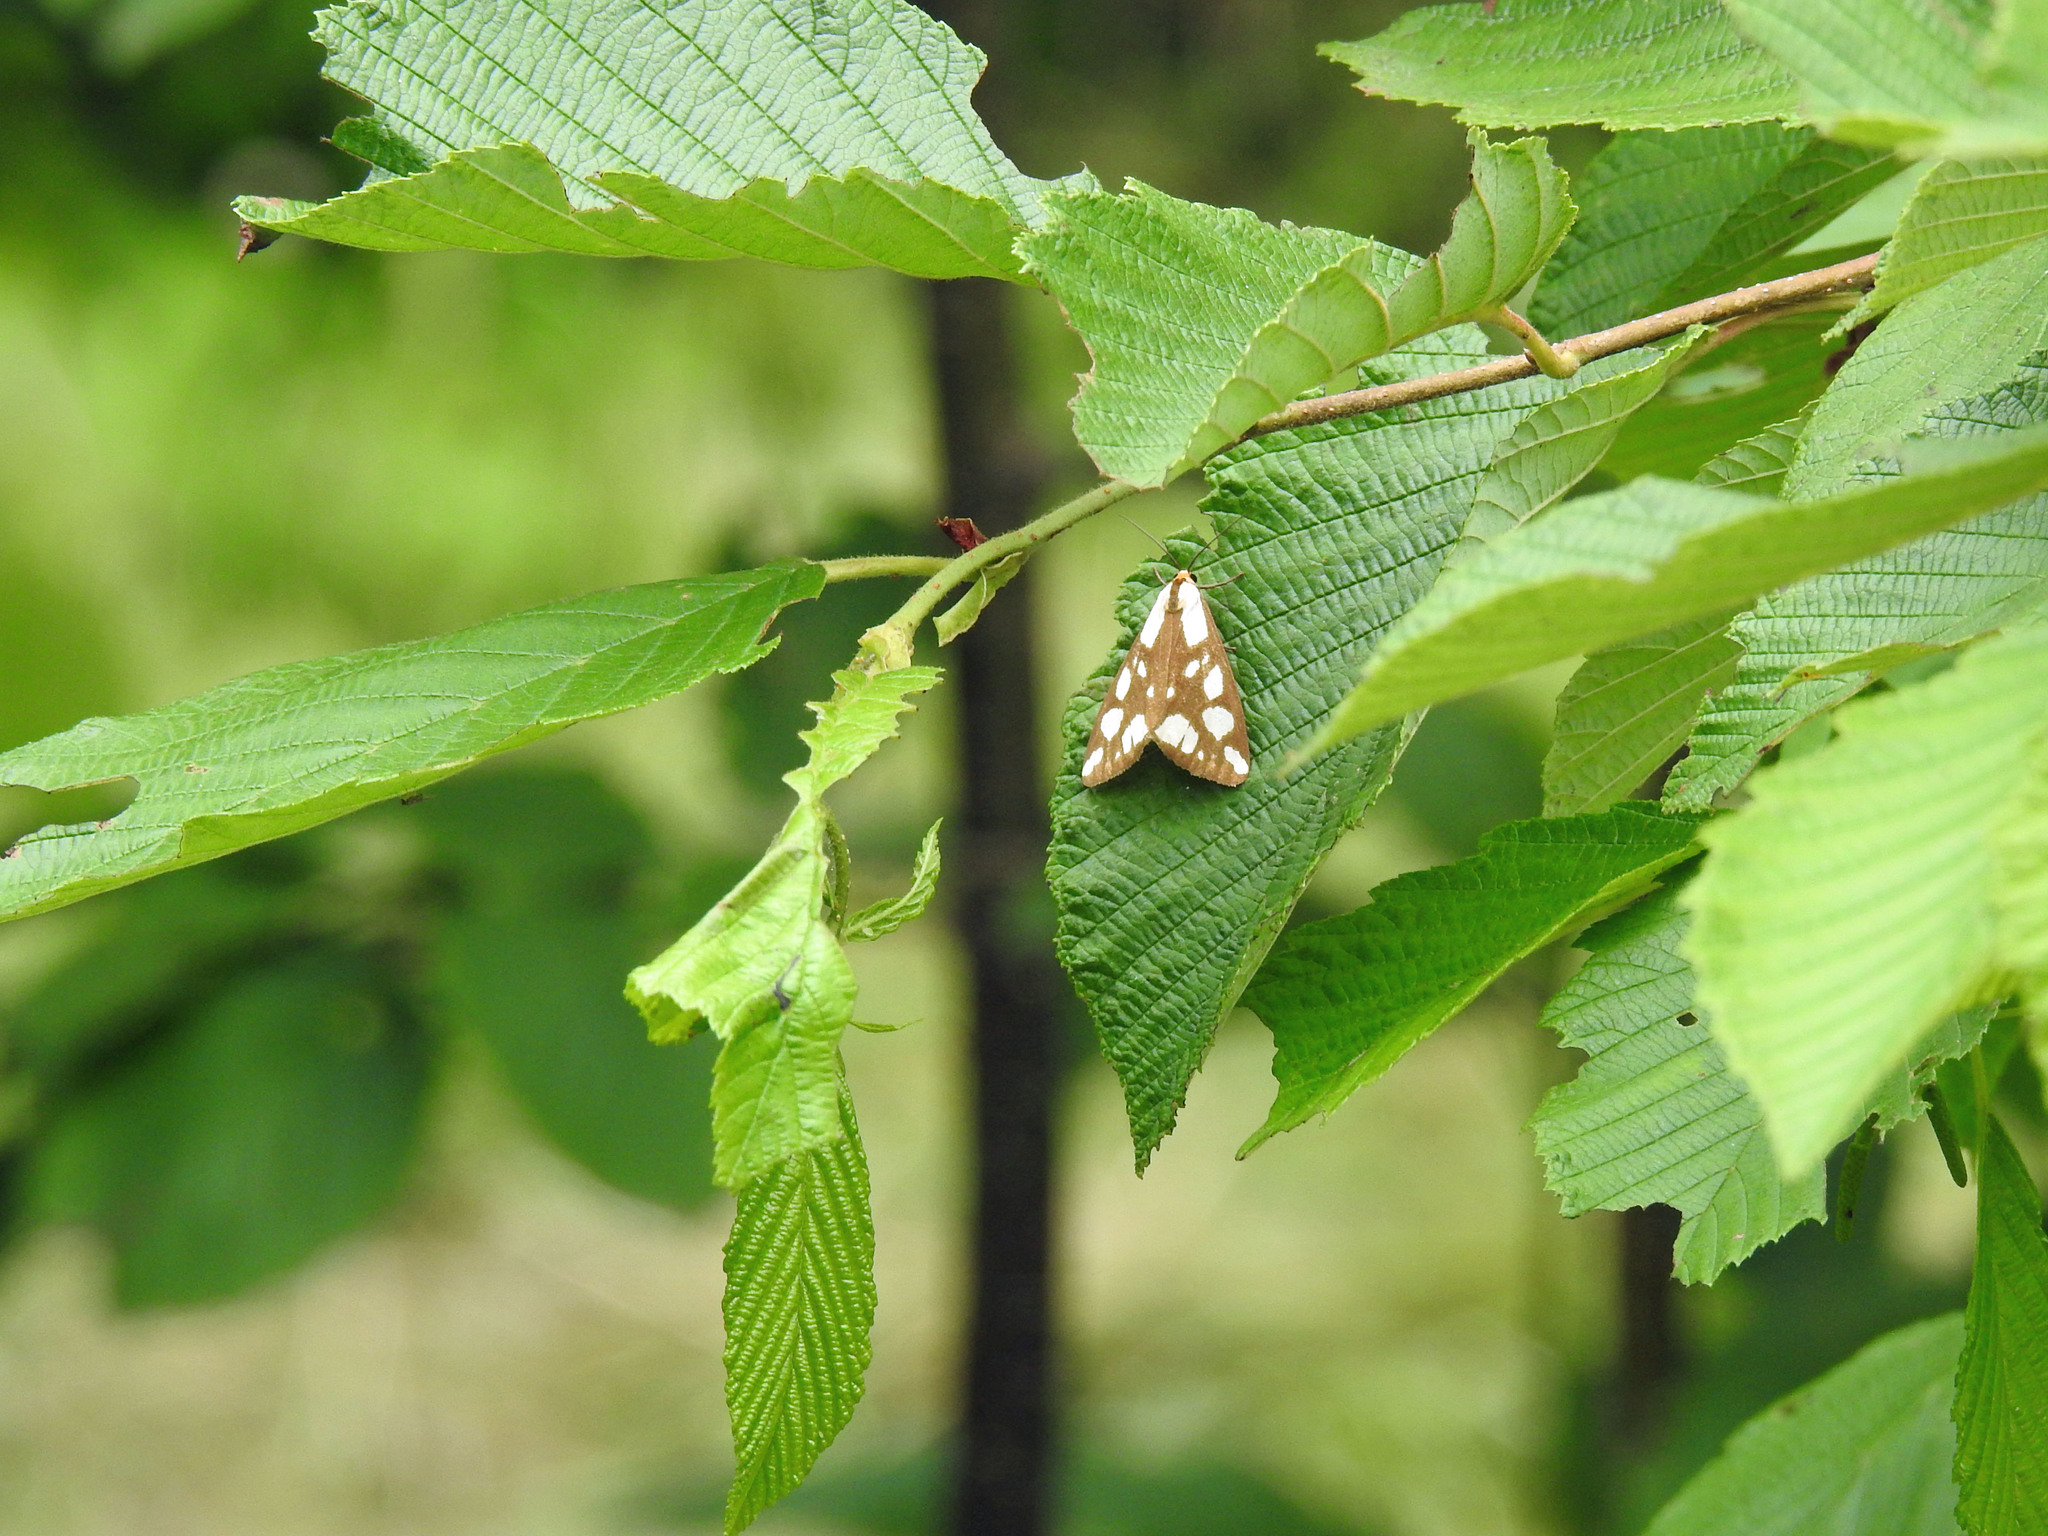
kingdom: Animalia
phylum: Arthropoda
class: Insecta
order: Lepidoptera
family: Erebidae
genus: Haploa
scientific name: Haploa confusa
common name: Confused haploa moth
